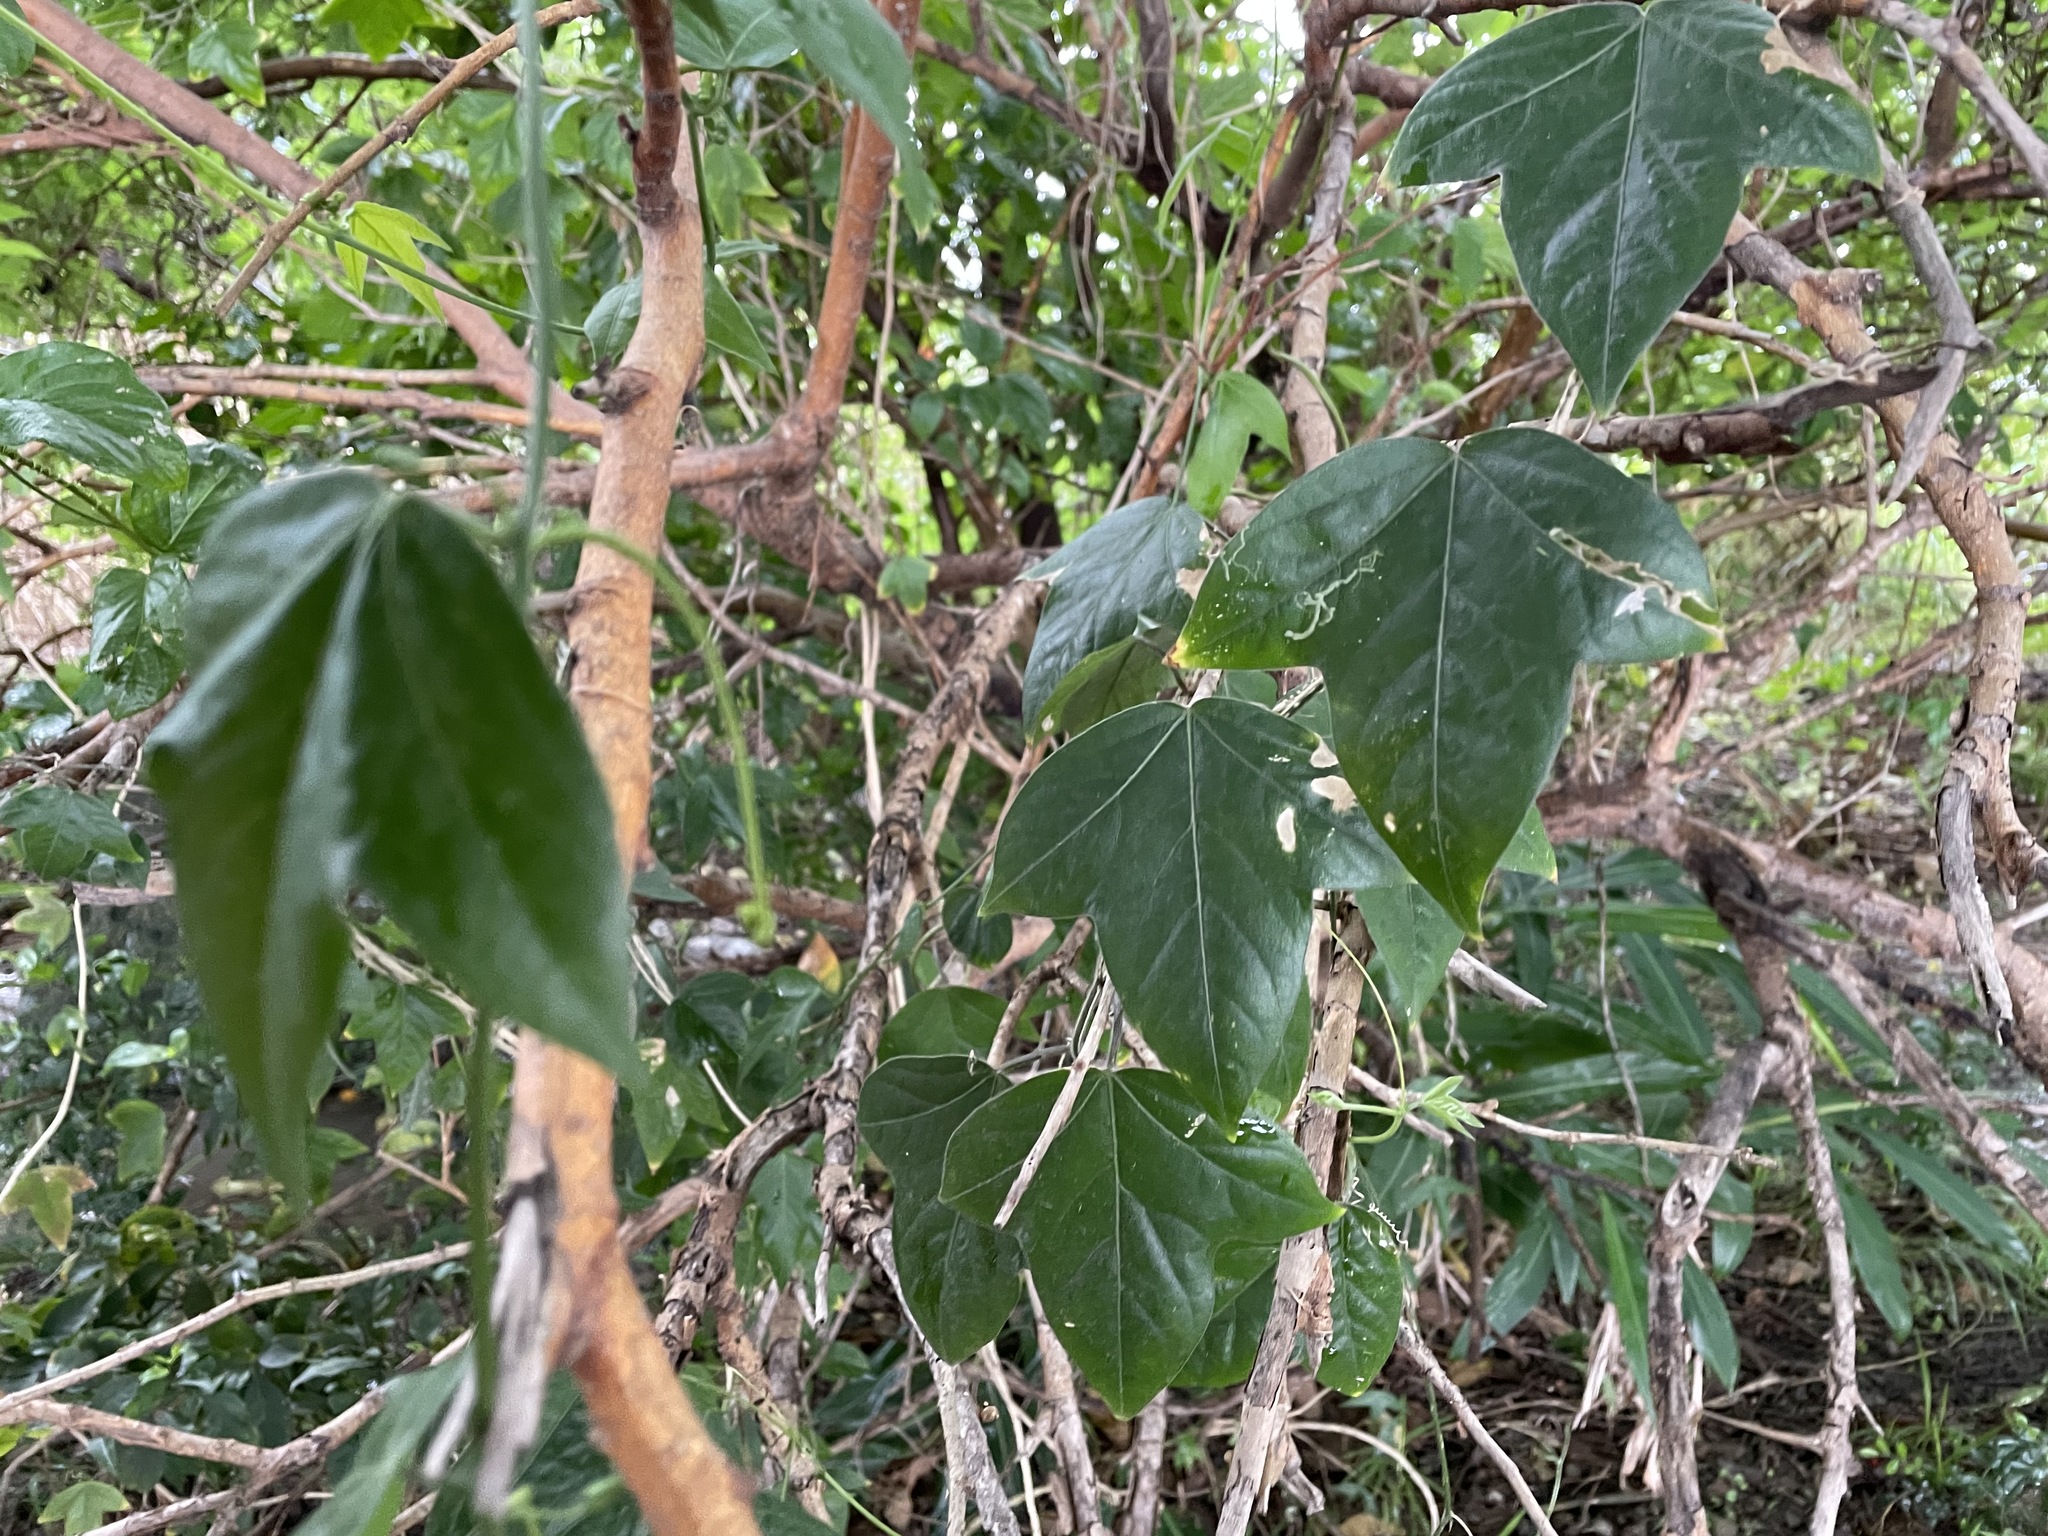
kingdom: Plantae
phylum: Tracheophyta
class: Magnoliopsida
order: Malpighiales
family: Passifloraceae
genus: Passiflora
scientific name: Passiflora suberosa
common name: Wild passionfruit
